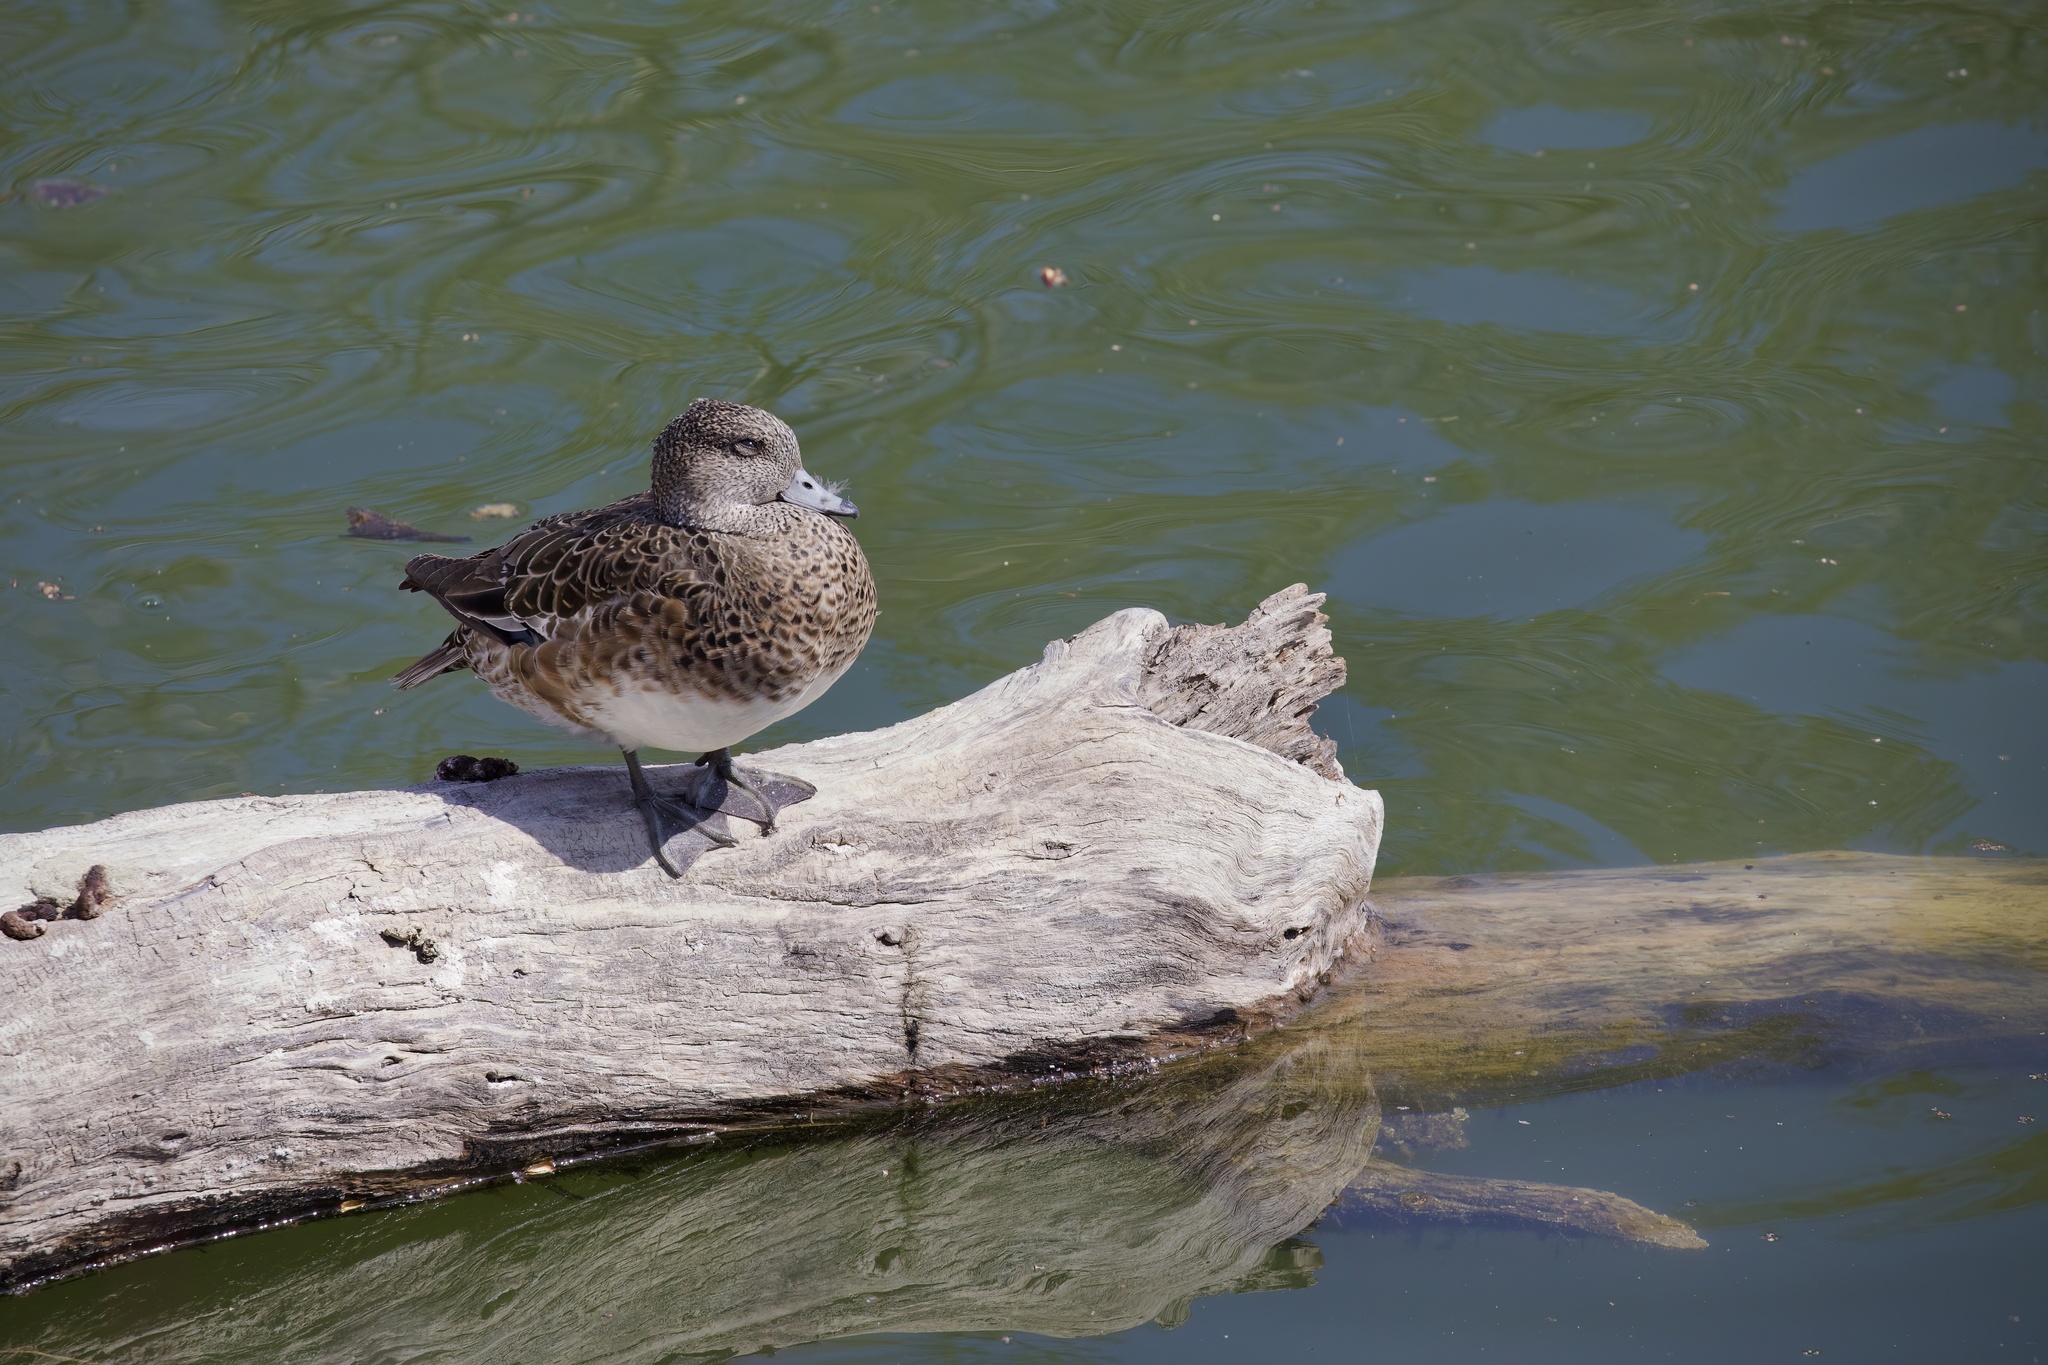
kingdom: Animalia
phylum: Chordata
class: Aves
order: Anseriformes
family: Anatidae
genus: Mareca
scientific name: Mareca americana
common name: American wigeon
